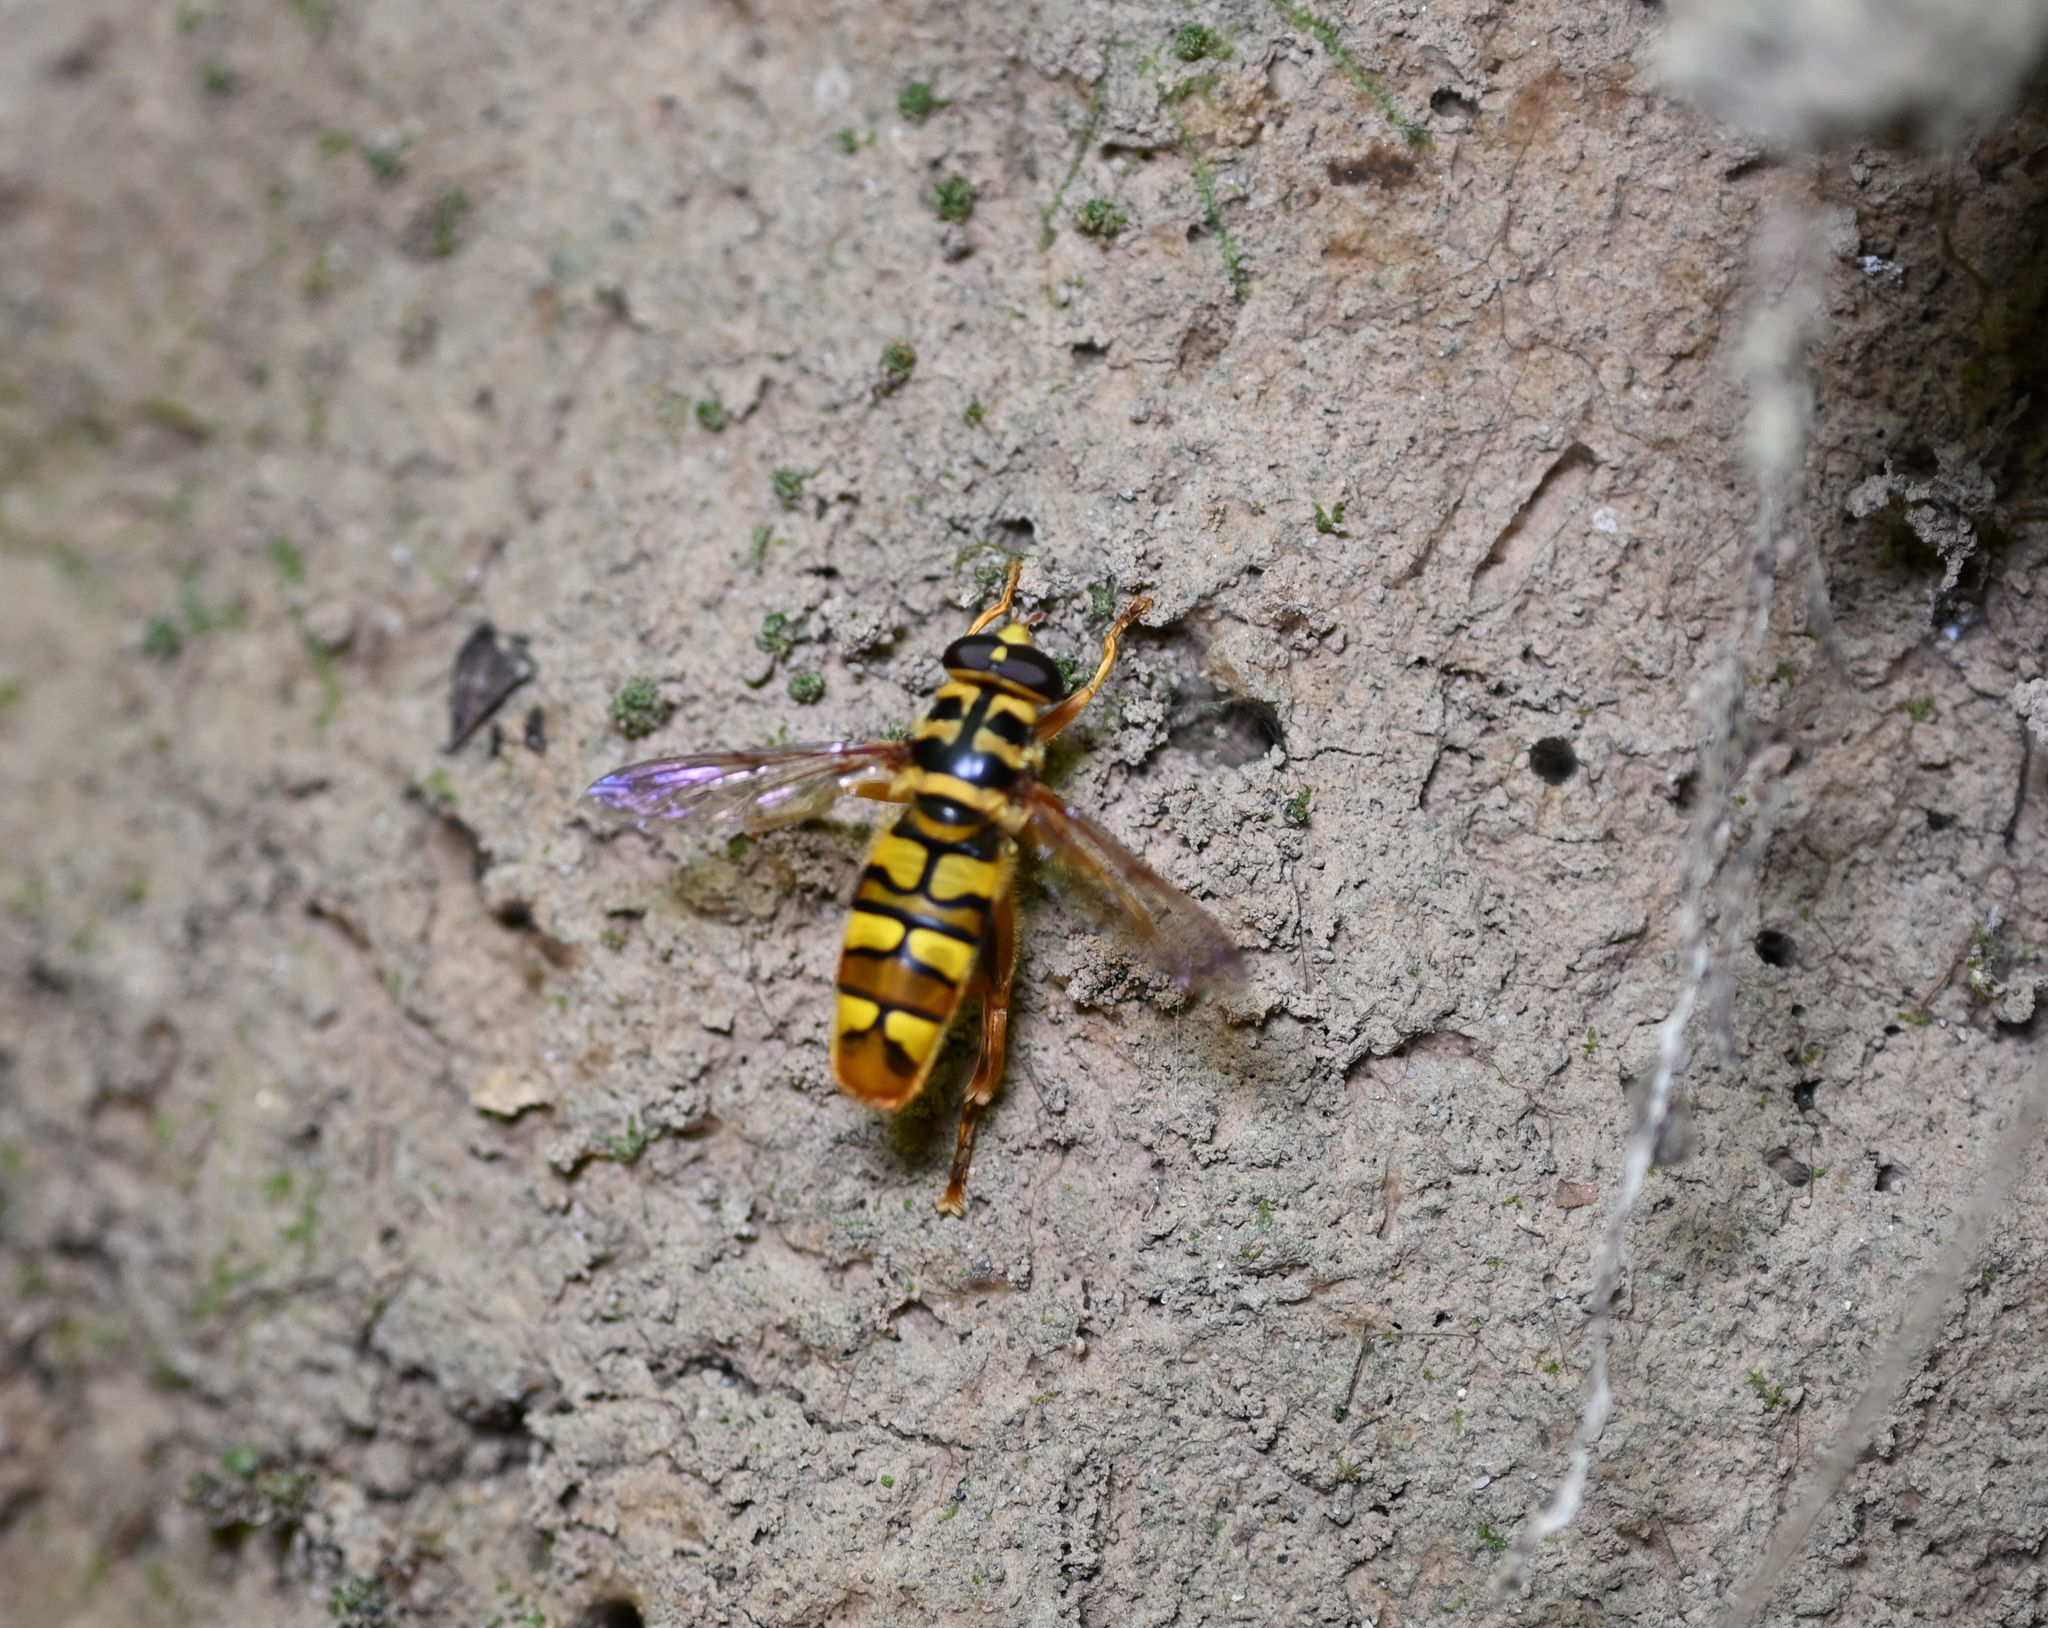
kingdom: Animalia
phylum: Arthropoda
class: Insecta
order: Diptera
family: Syrphidae
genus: Milesia
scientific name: Milesia virginiensis
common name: Virginia giant
